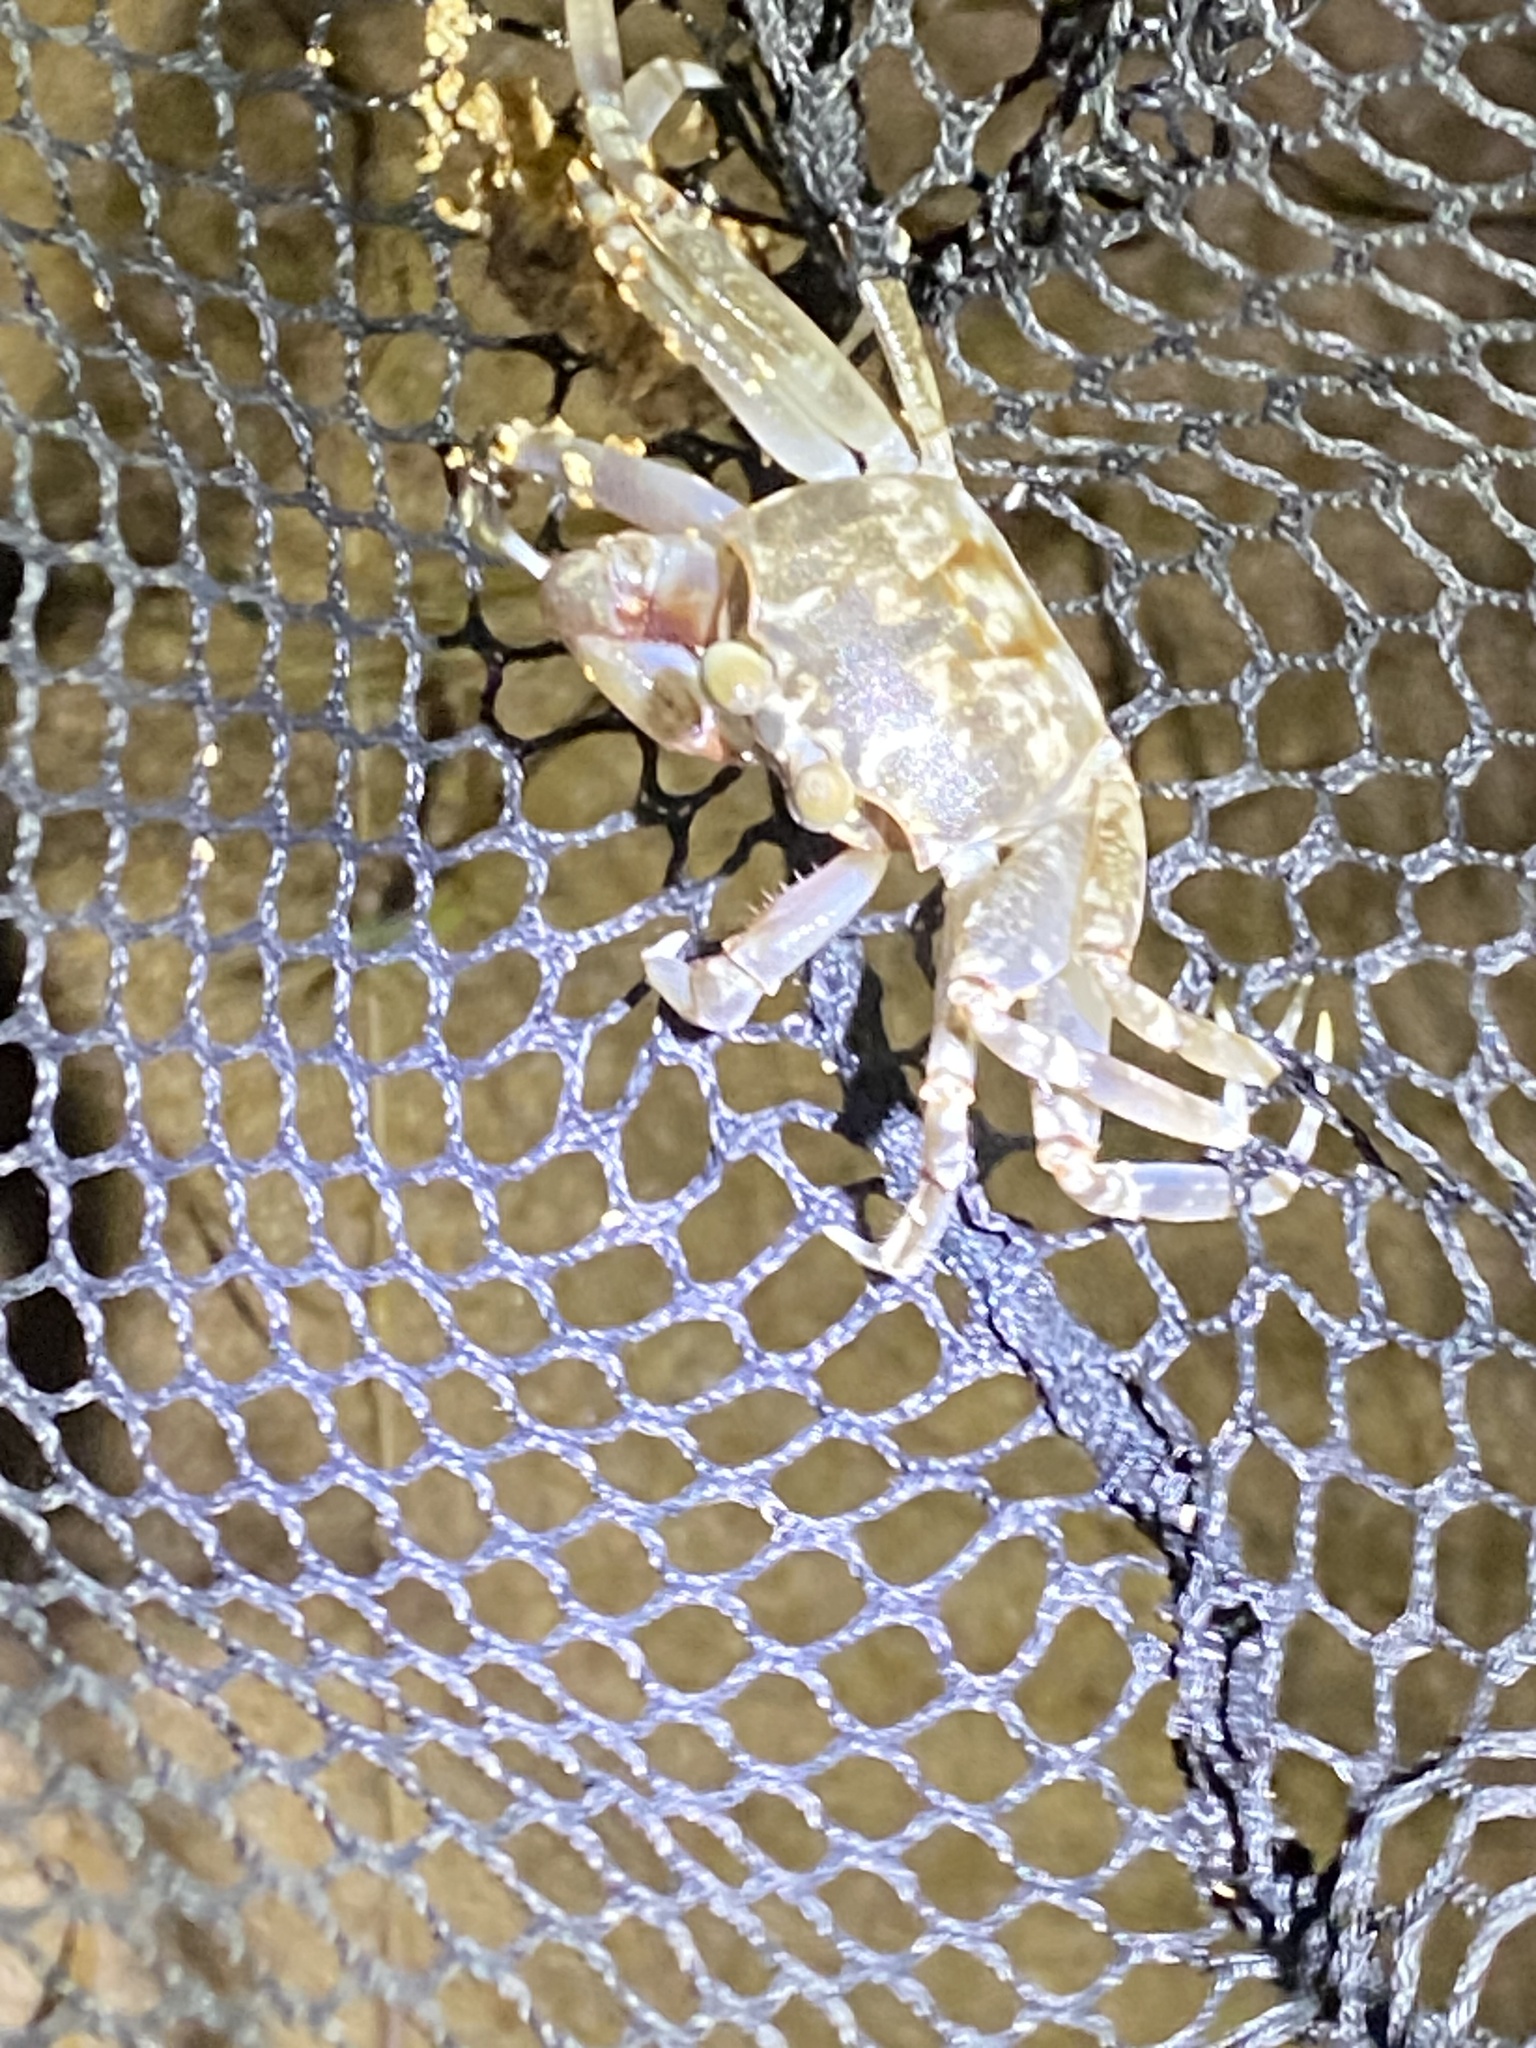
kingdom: Animalia
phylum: Arthropoda
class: Malacostraca
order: Decapoda
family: Ocypodidae
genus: Ocypode
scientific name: Ocypode ceratophthalmus
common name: Indo-pacific ghost crab
